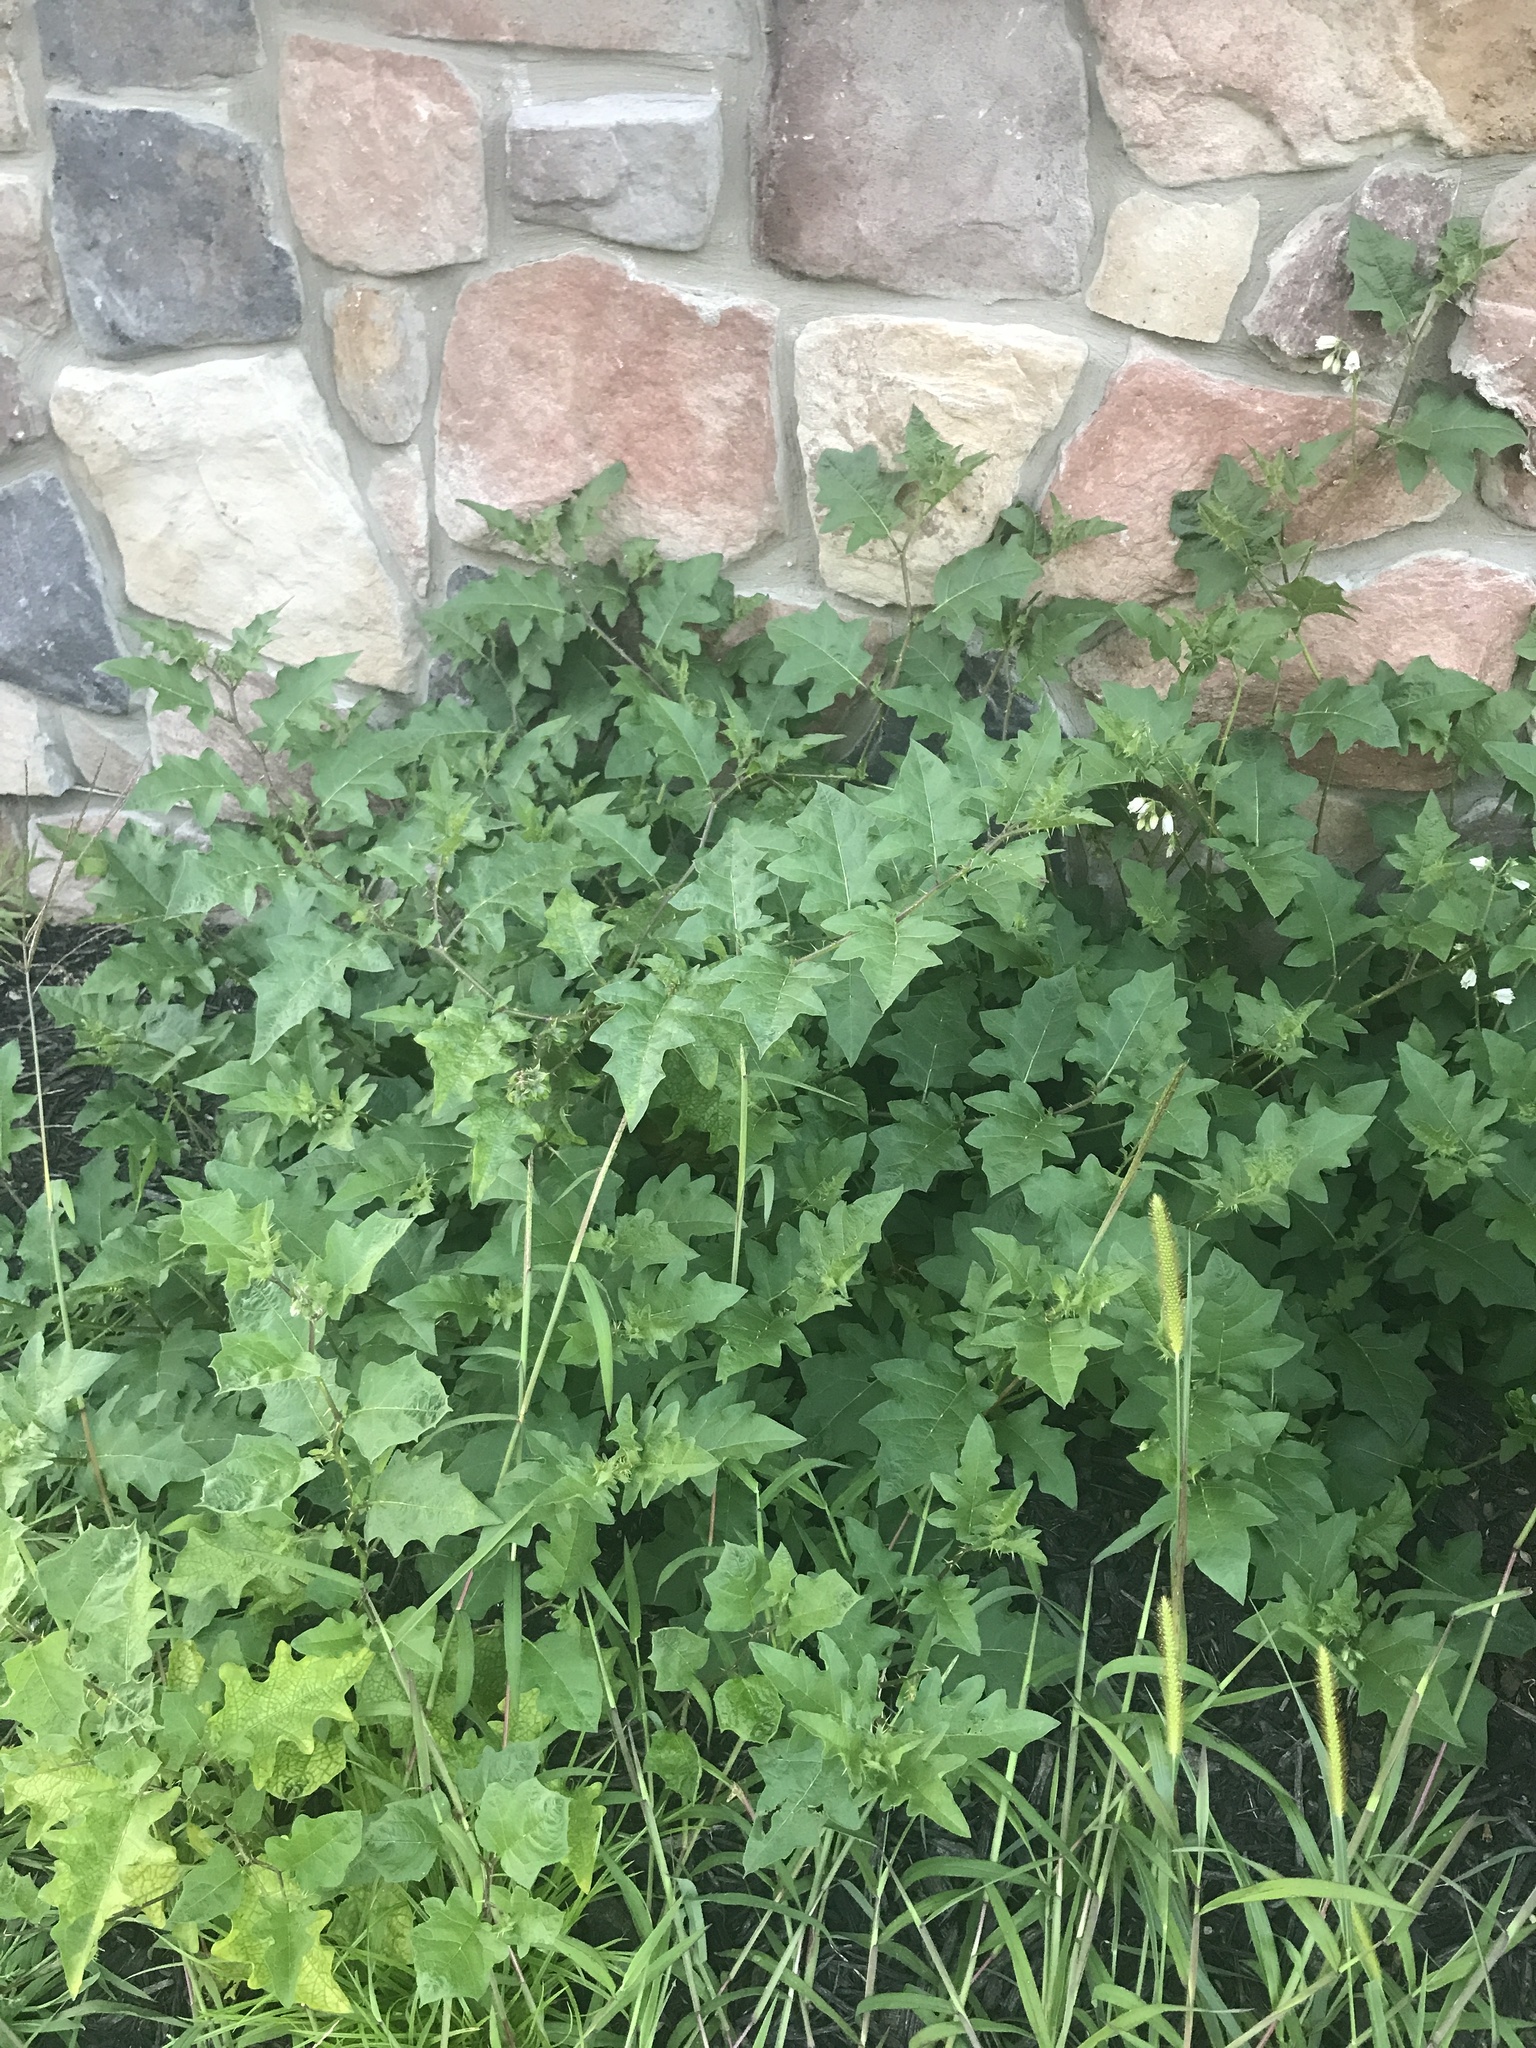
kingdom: Plantae
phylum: Tracheophyta
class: Magnoliopsida
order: Solanales
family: Solanaceae
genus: Solanum
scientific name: Solanum carolinense
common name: Horse-nettle
